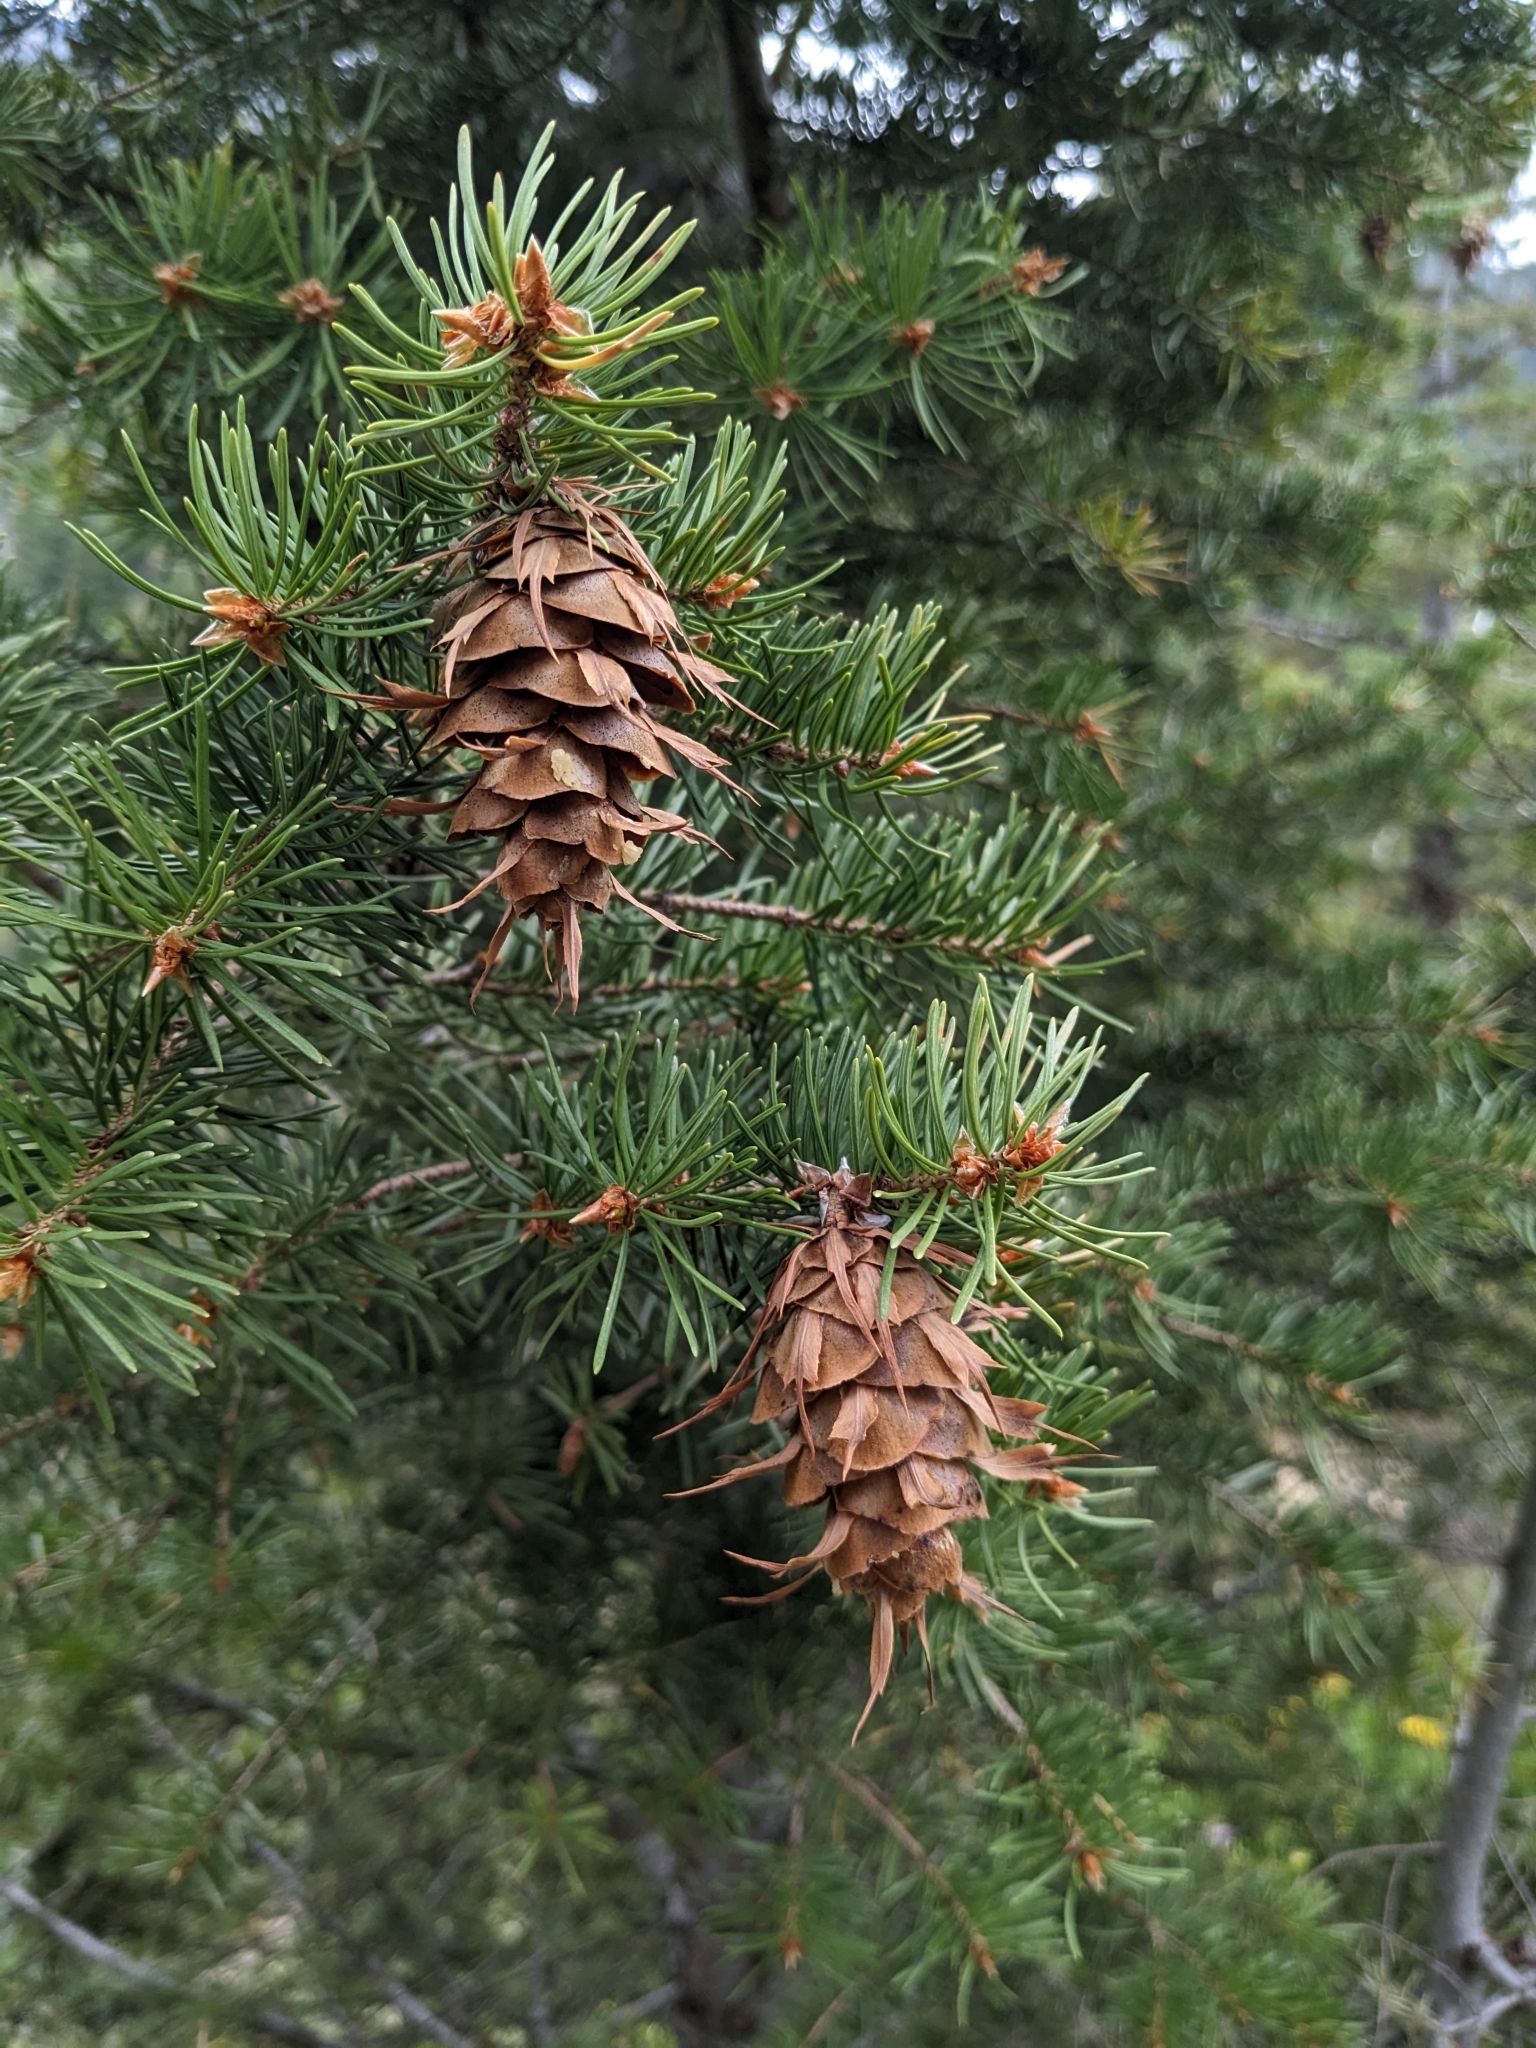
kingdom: Plantae
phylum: Tracheophyta
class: Pinopsida
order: Pinales
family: Pinaceae
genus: Pseudotsuga
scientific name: Pseudotsuga menziesii
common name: Douglas fir
